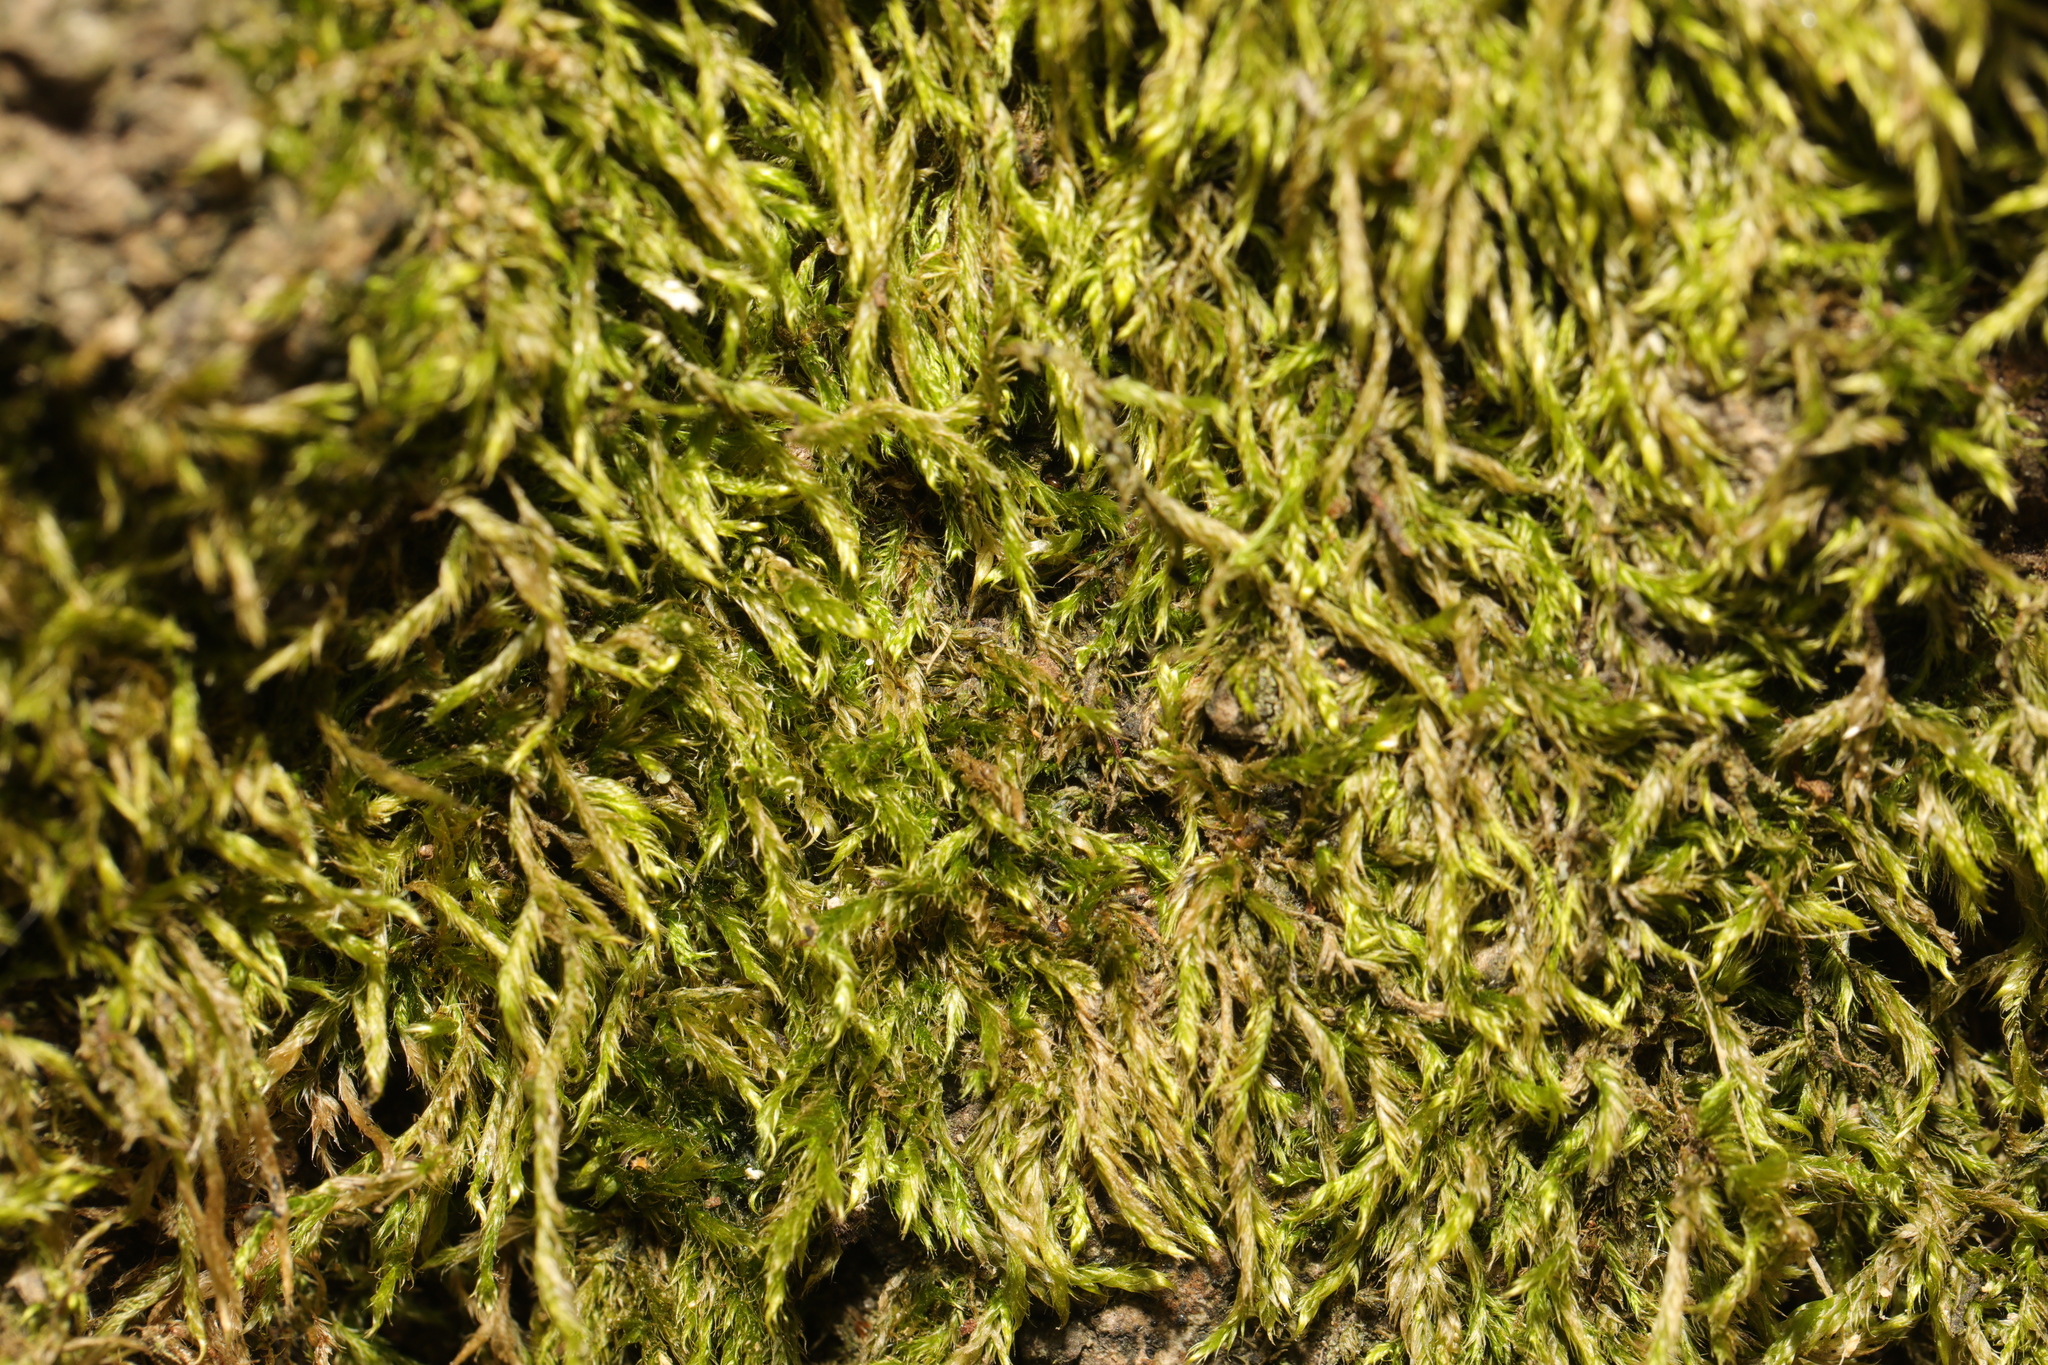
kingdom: Plantae
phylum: Bryophyta
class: Bryopsida
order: Hypnales
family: Hypnaceae
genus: Hypnum
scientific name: Hypnum cupressiforme
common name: Cypress-leaved plait-moss
